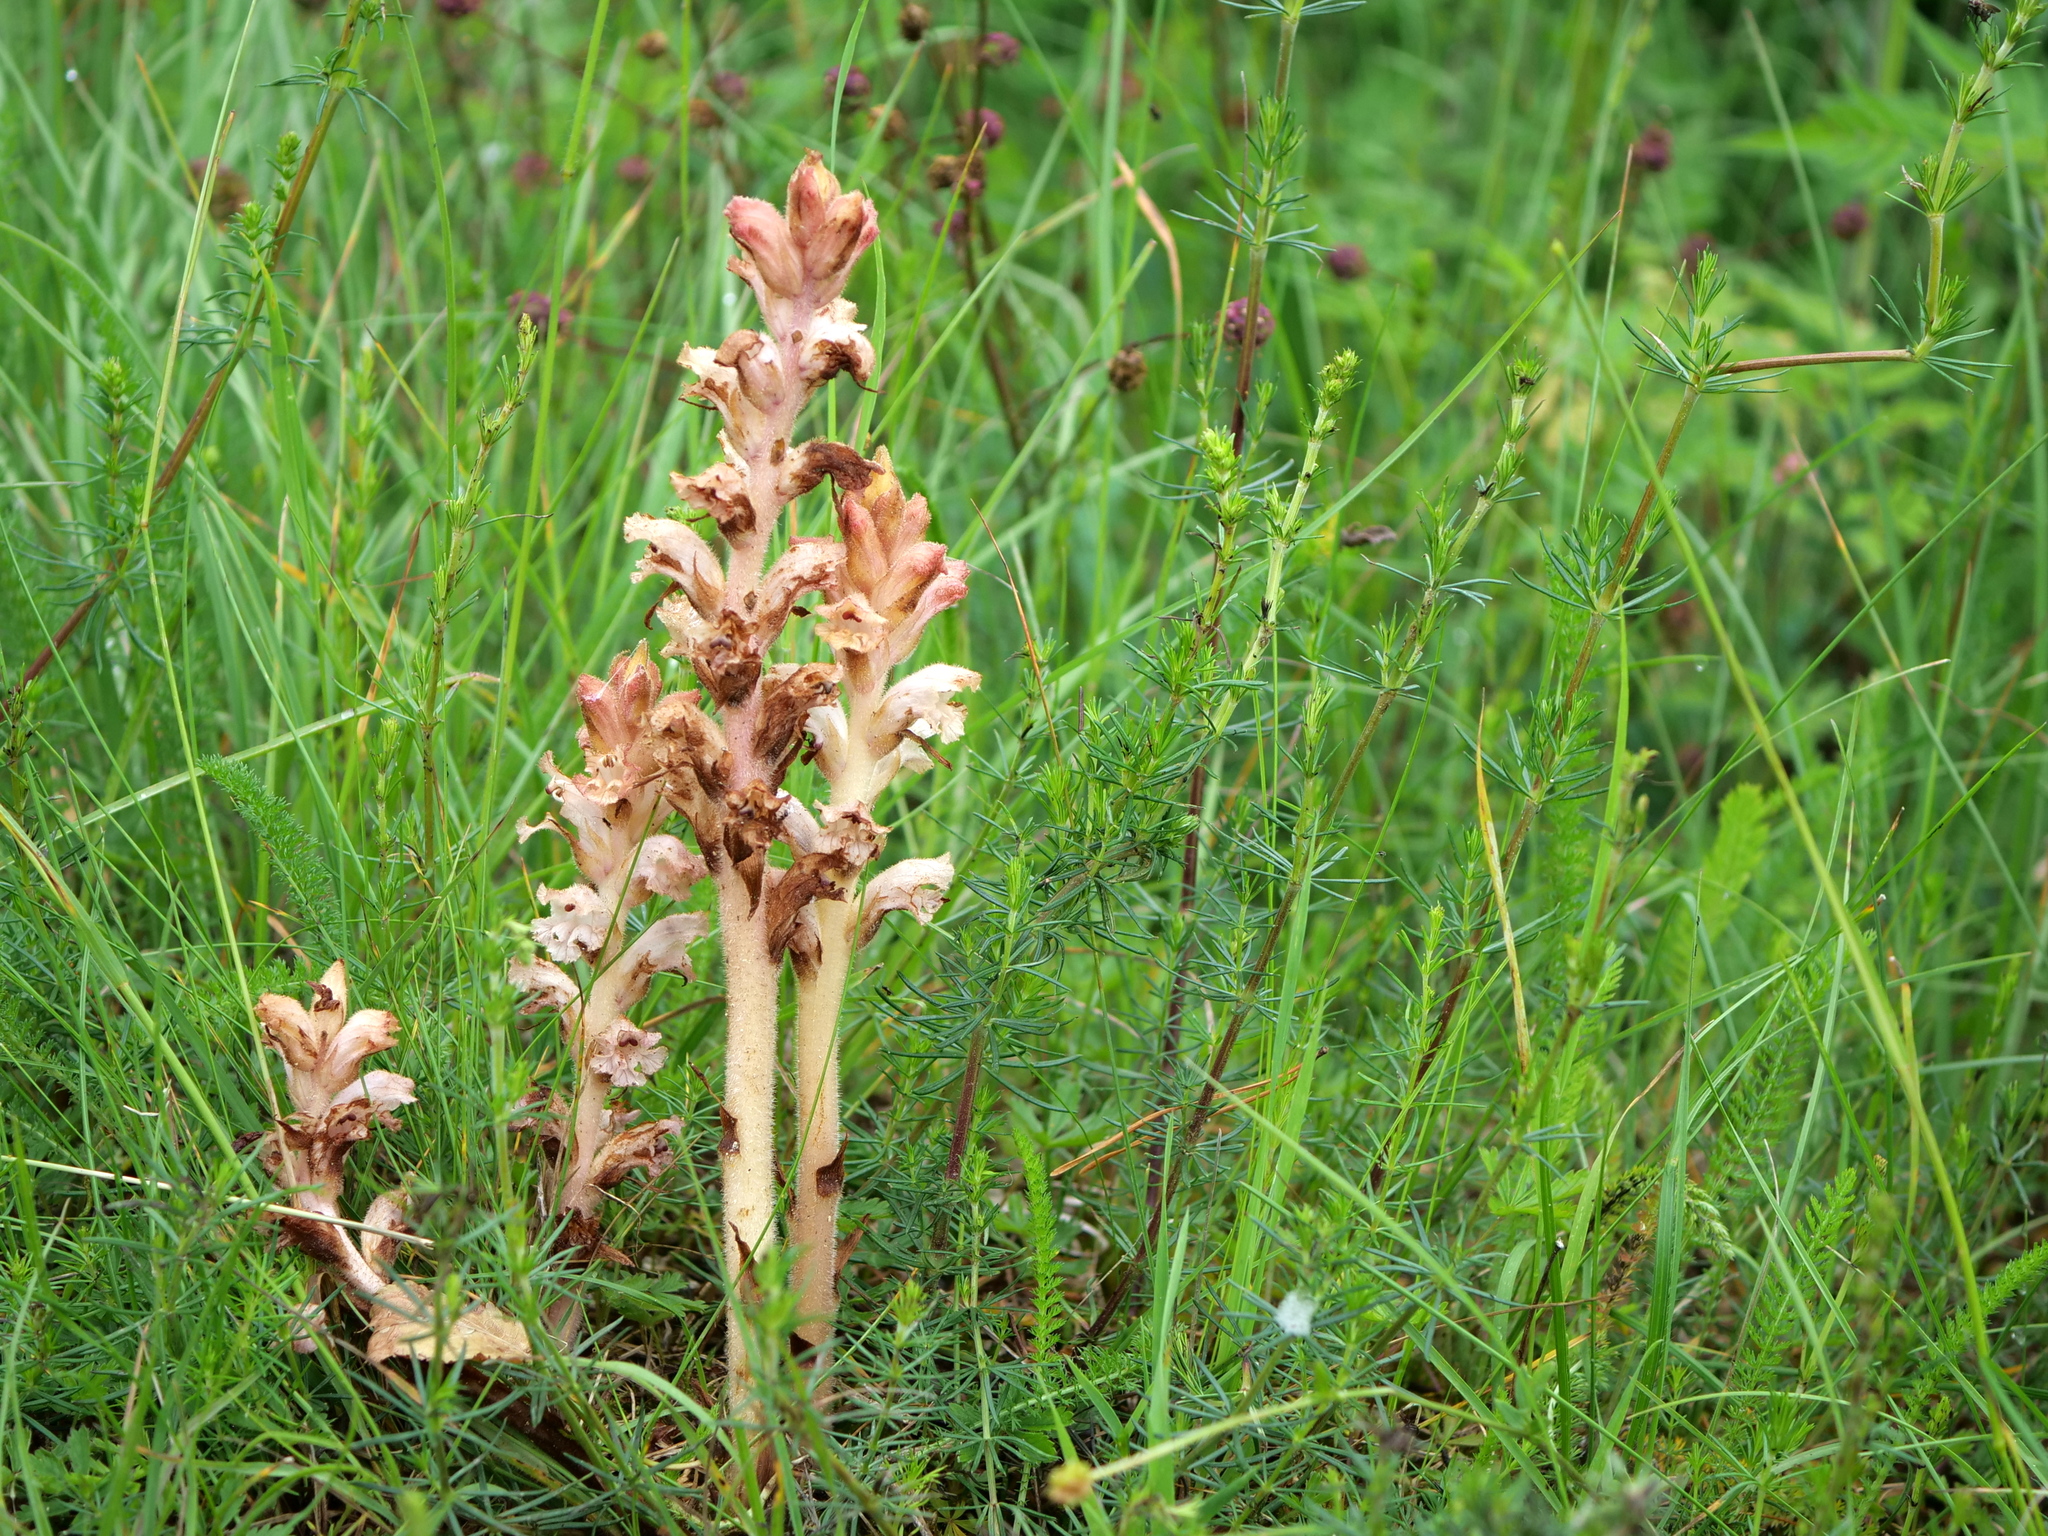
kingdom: Plantae
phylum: Tracheophyta
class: Magnoliopsida
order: Lamiales
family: Orobanchaceae
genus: Orobanche
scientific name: Orobanche caryophyllacea
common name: Bedstraw broomrape
